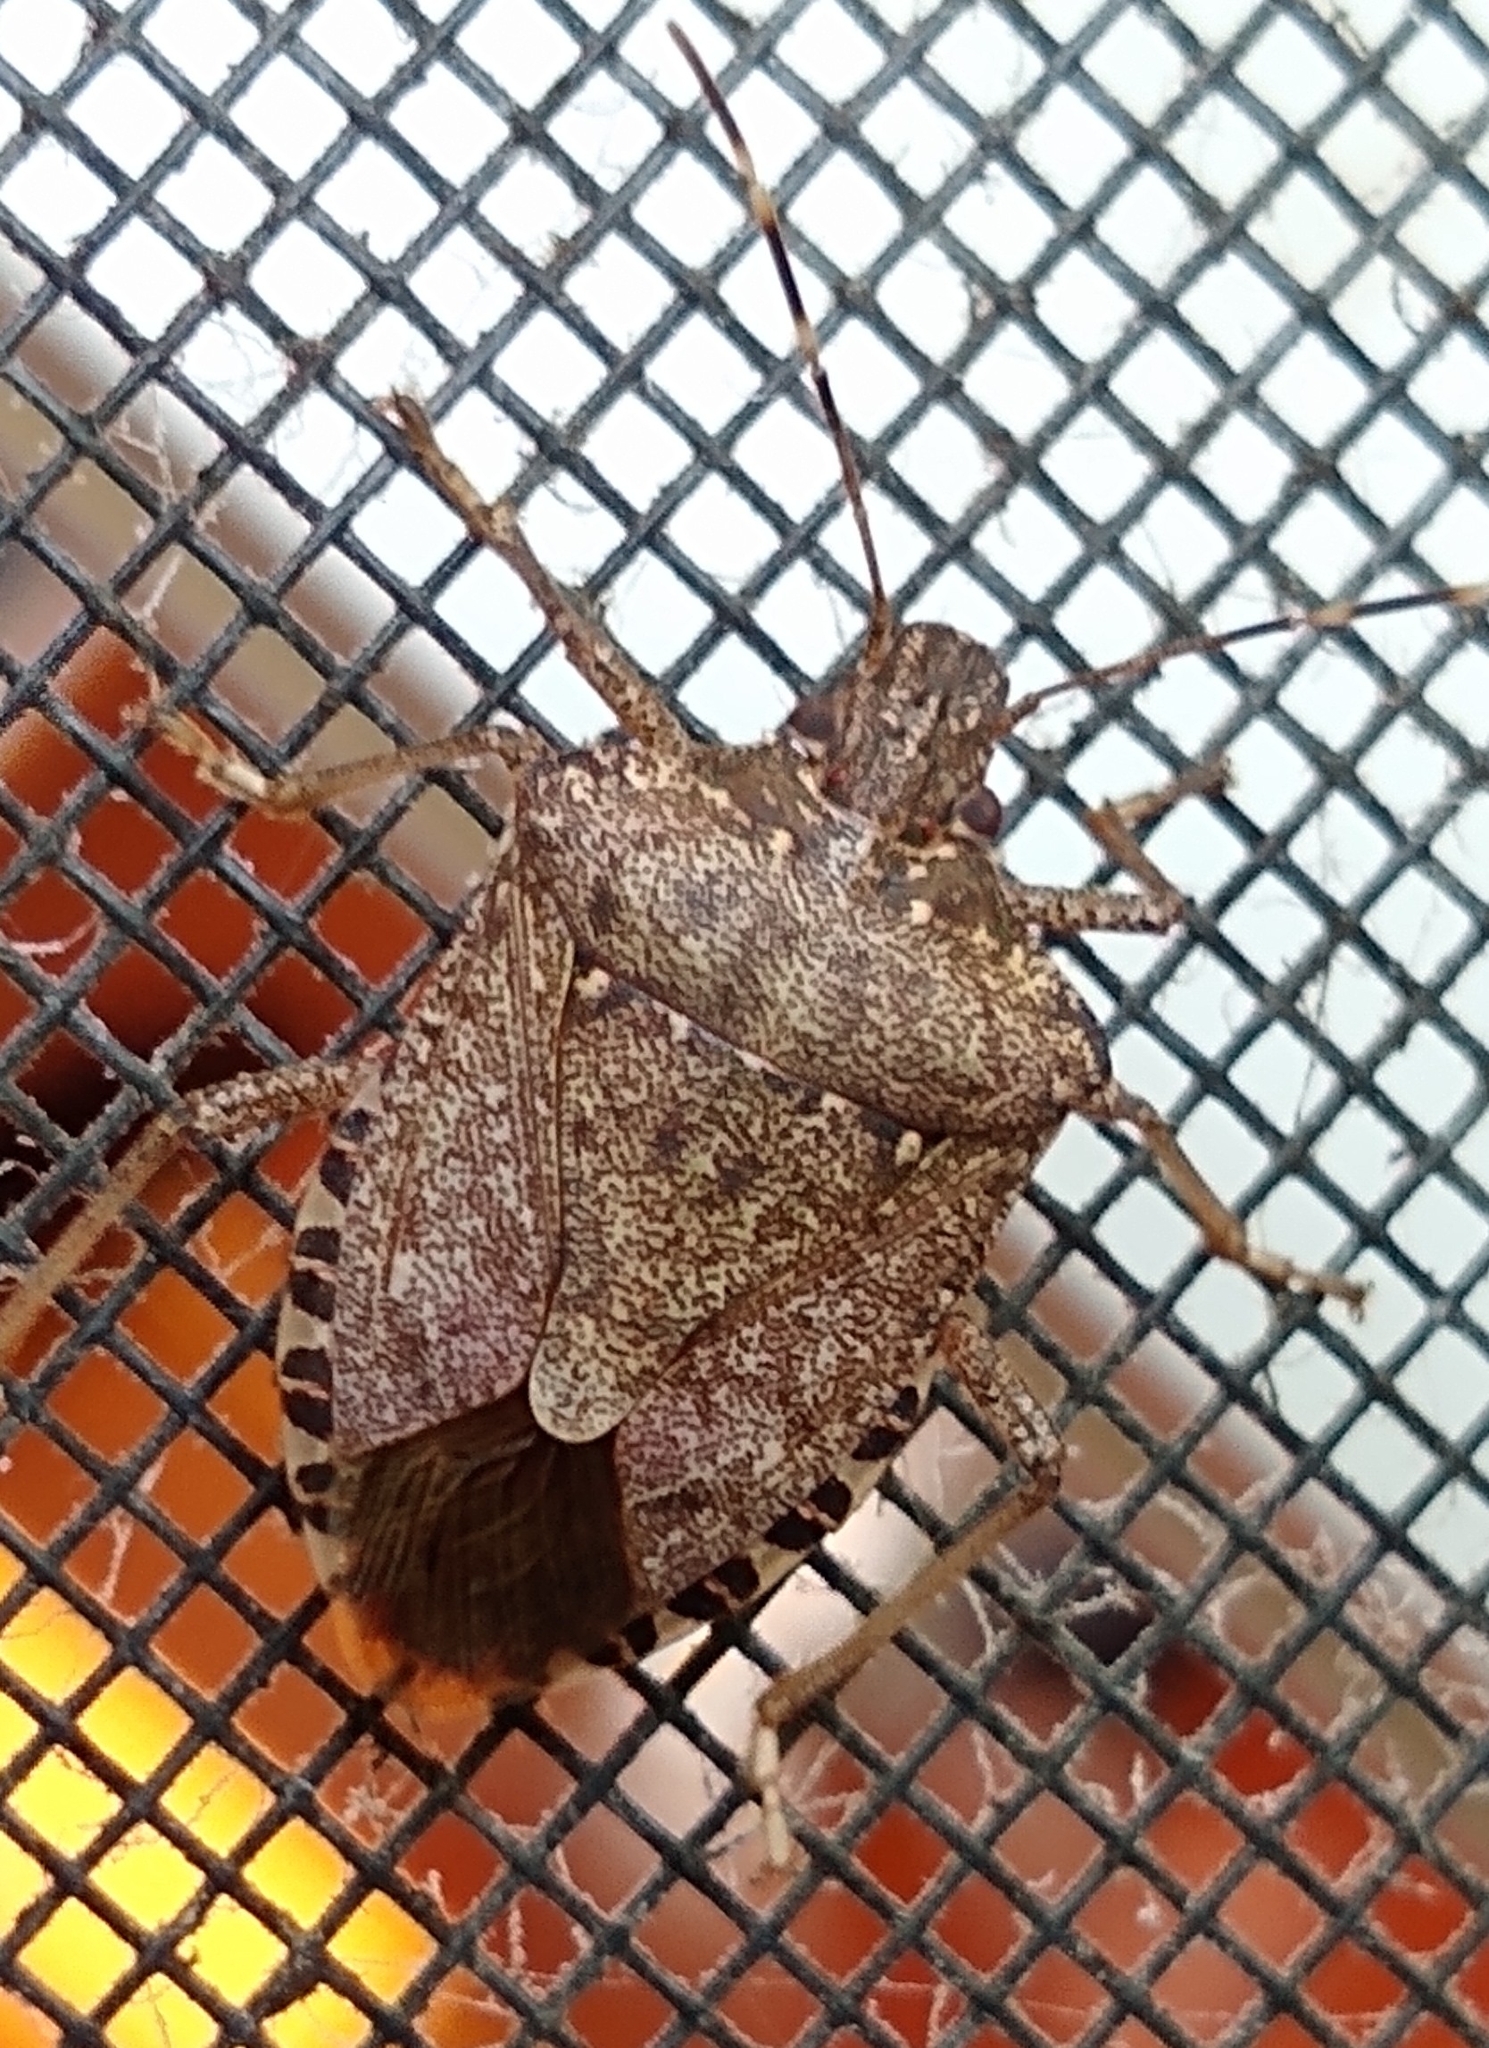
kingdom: Animalia
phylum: Arthropoda
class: Insecta
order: Hemiptera
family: Pentatomidae
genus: Halyomorpha
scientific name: Halyomorpha halys
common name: Brown marmorated stink bug
